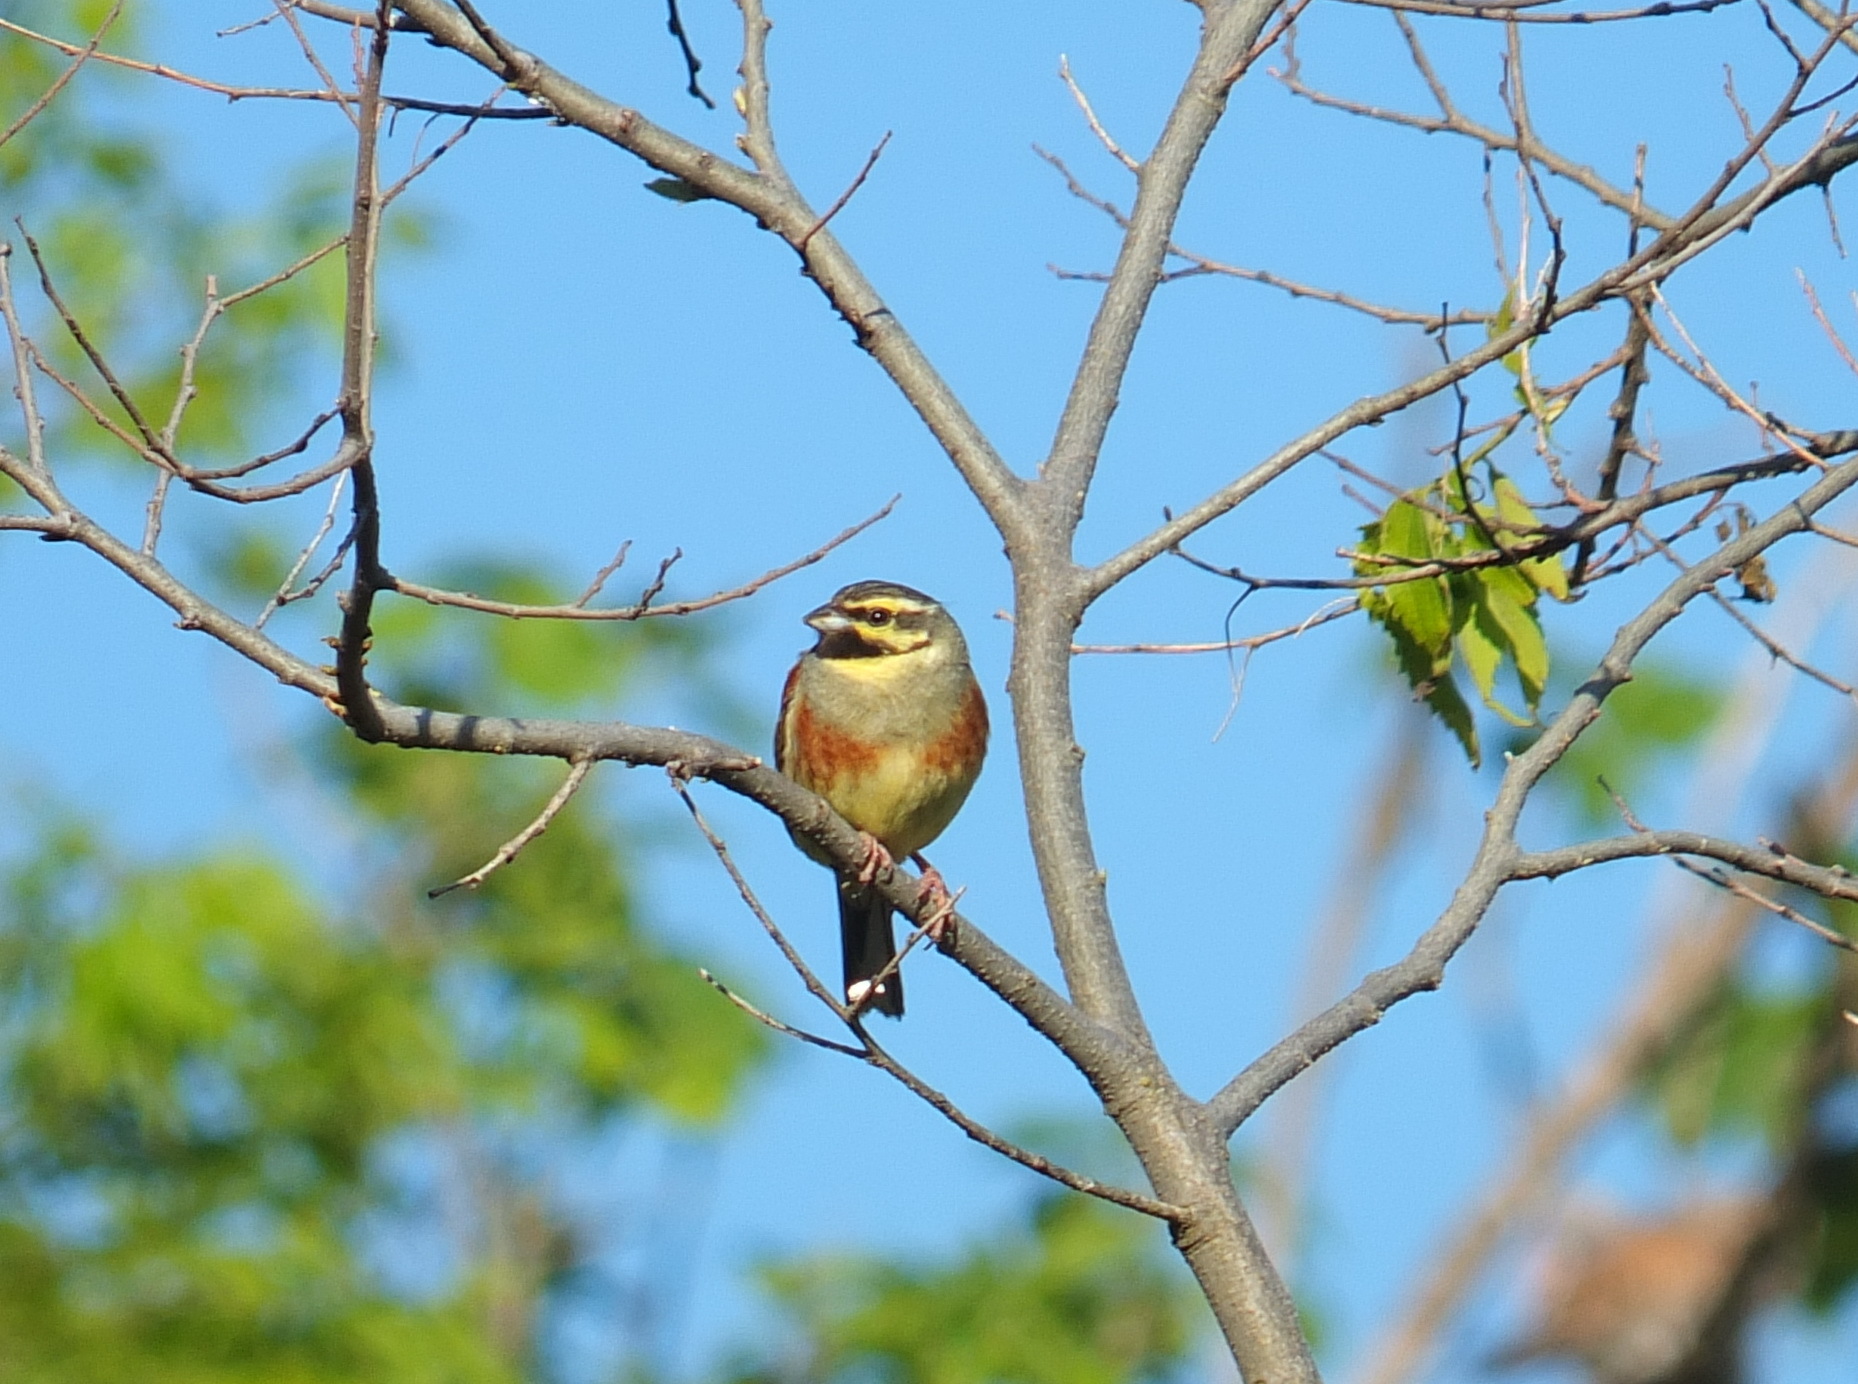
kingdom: Animalia
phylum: Chordata
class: Aves
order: Passeriformes
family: Emberizidae
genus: Emberiza
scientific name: Emberiza cirlus
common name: Cirl bunting
